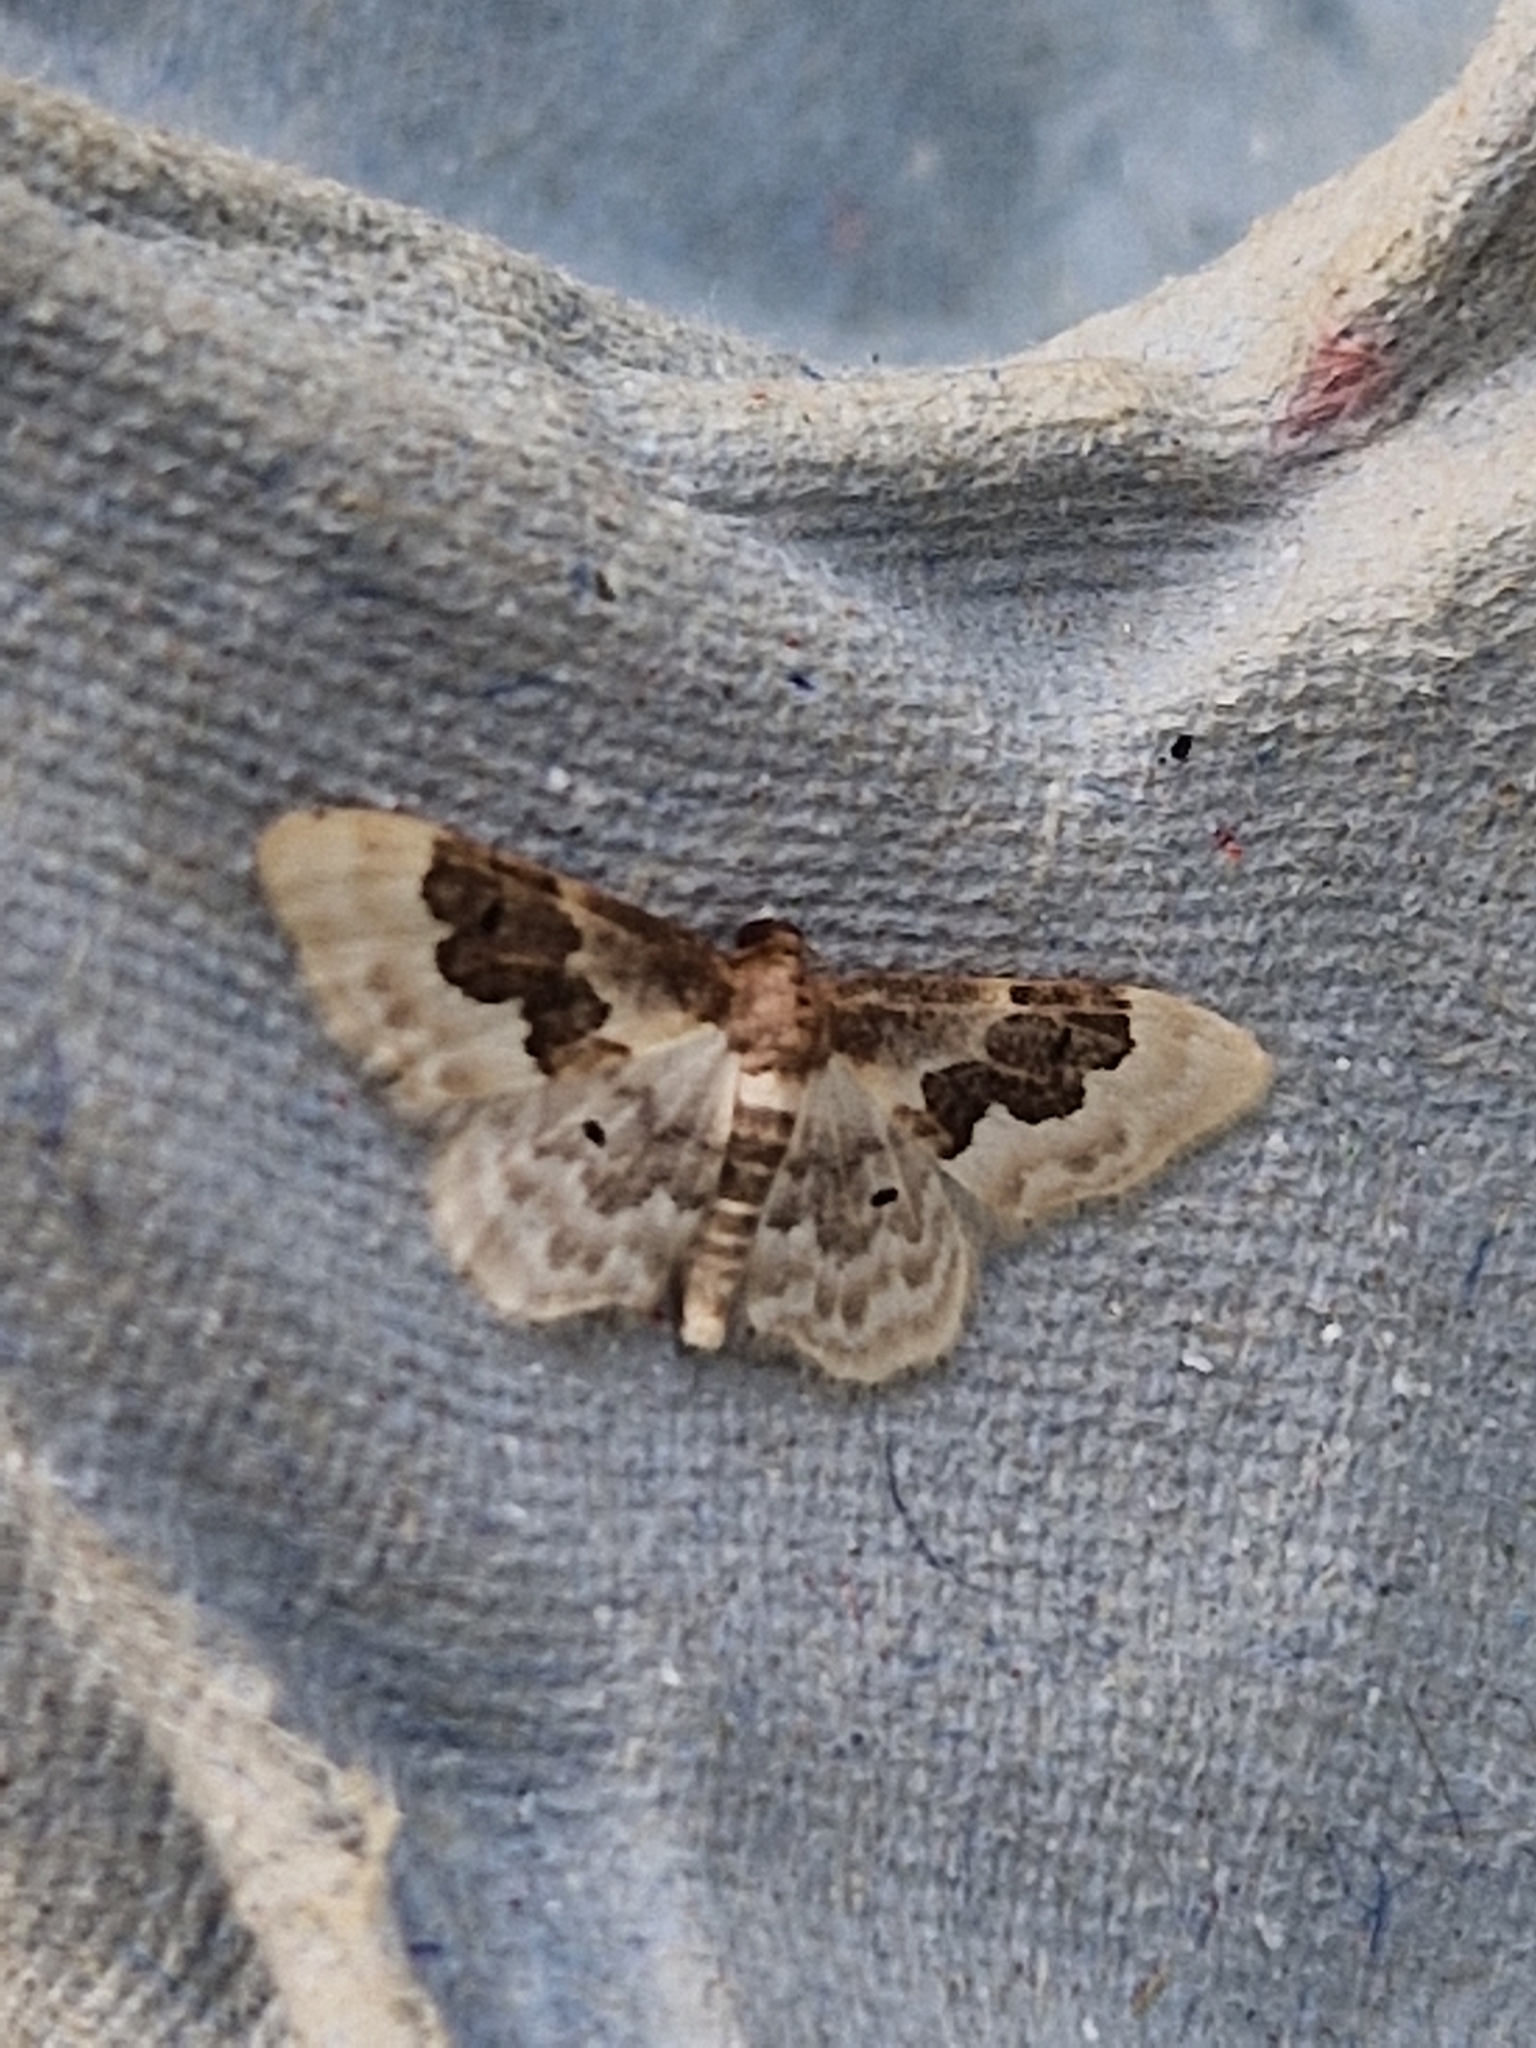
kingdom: Animalia
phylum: Arthropoda
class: Insecta
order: Lepidoptera
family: Geometridae
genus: Idaea
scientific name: Idaea rusticata
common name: Least carpet
